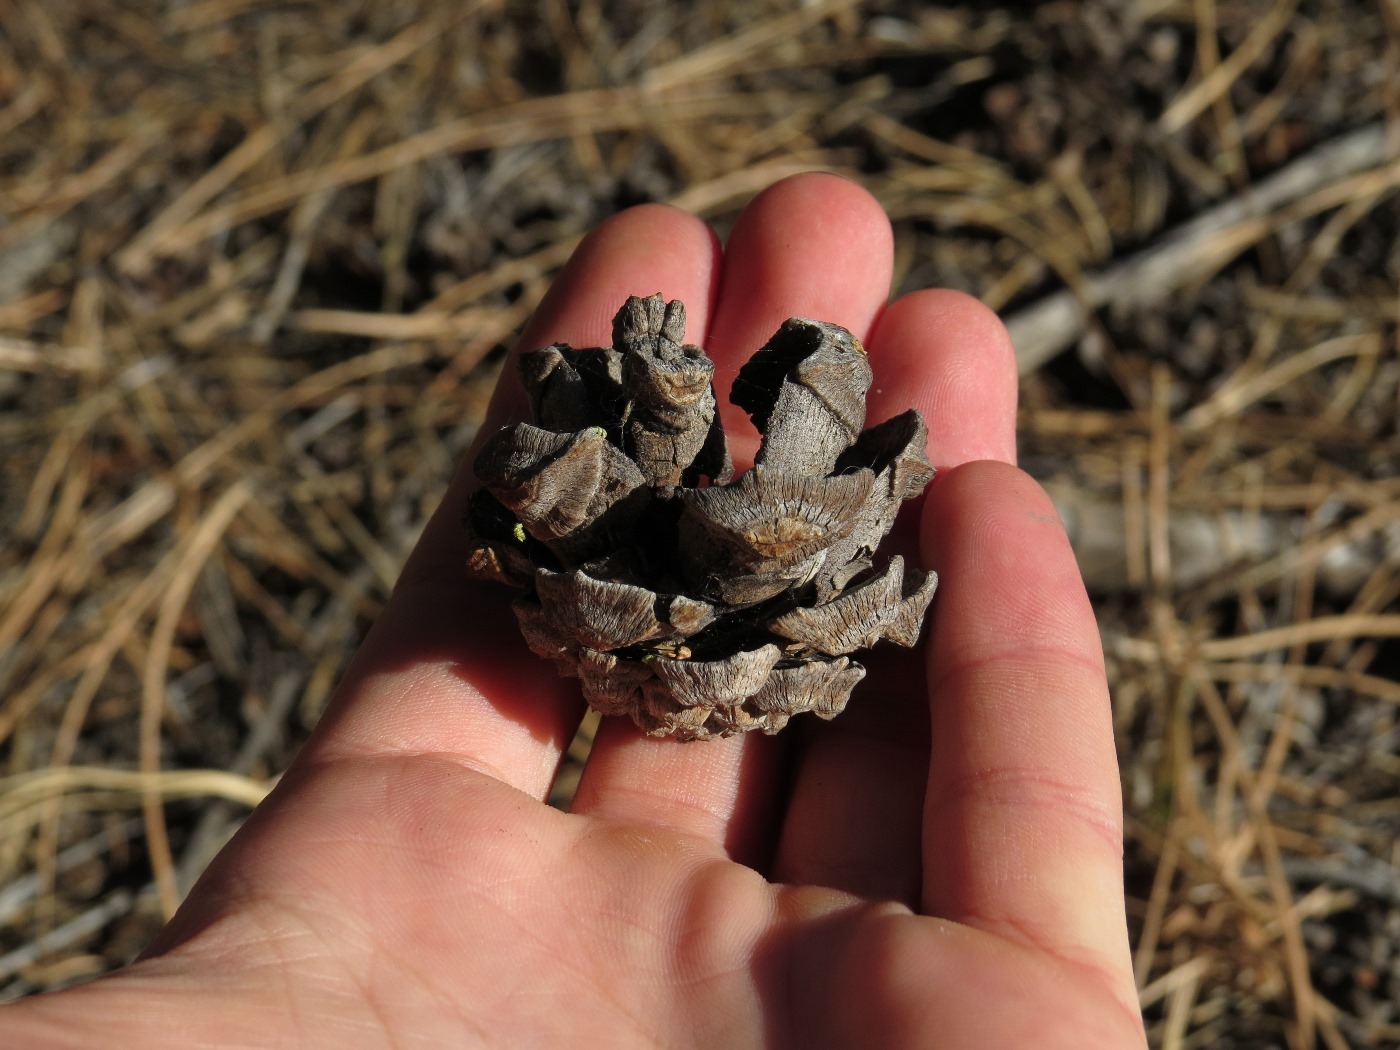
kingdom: Plantae
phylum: Tracheophyta
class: Pinopsida
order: Pinales
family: Pinaceae
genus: Pinus
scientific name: Pinus edulis
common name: Colorado pinyon
